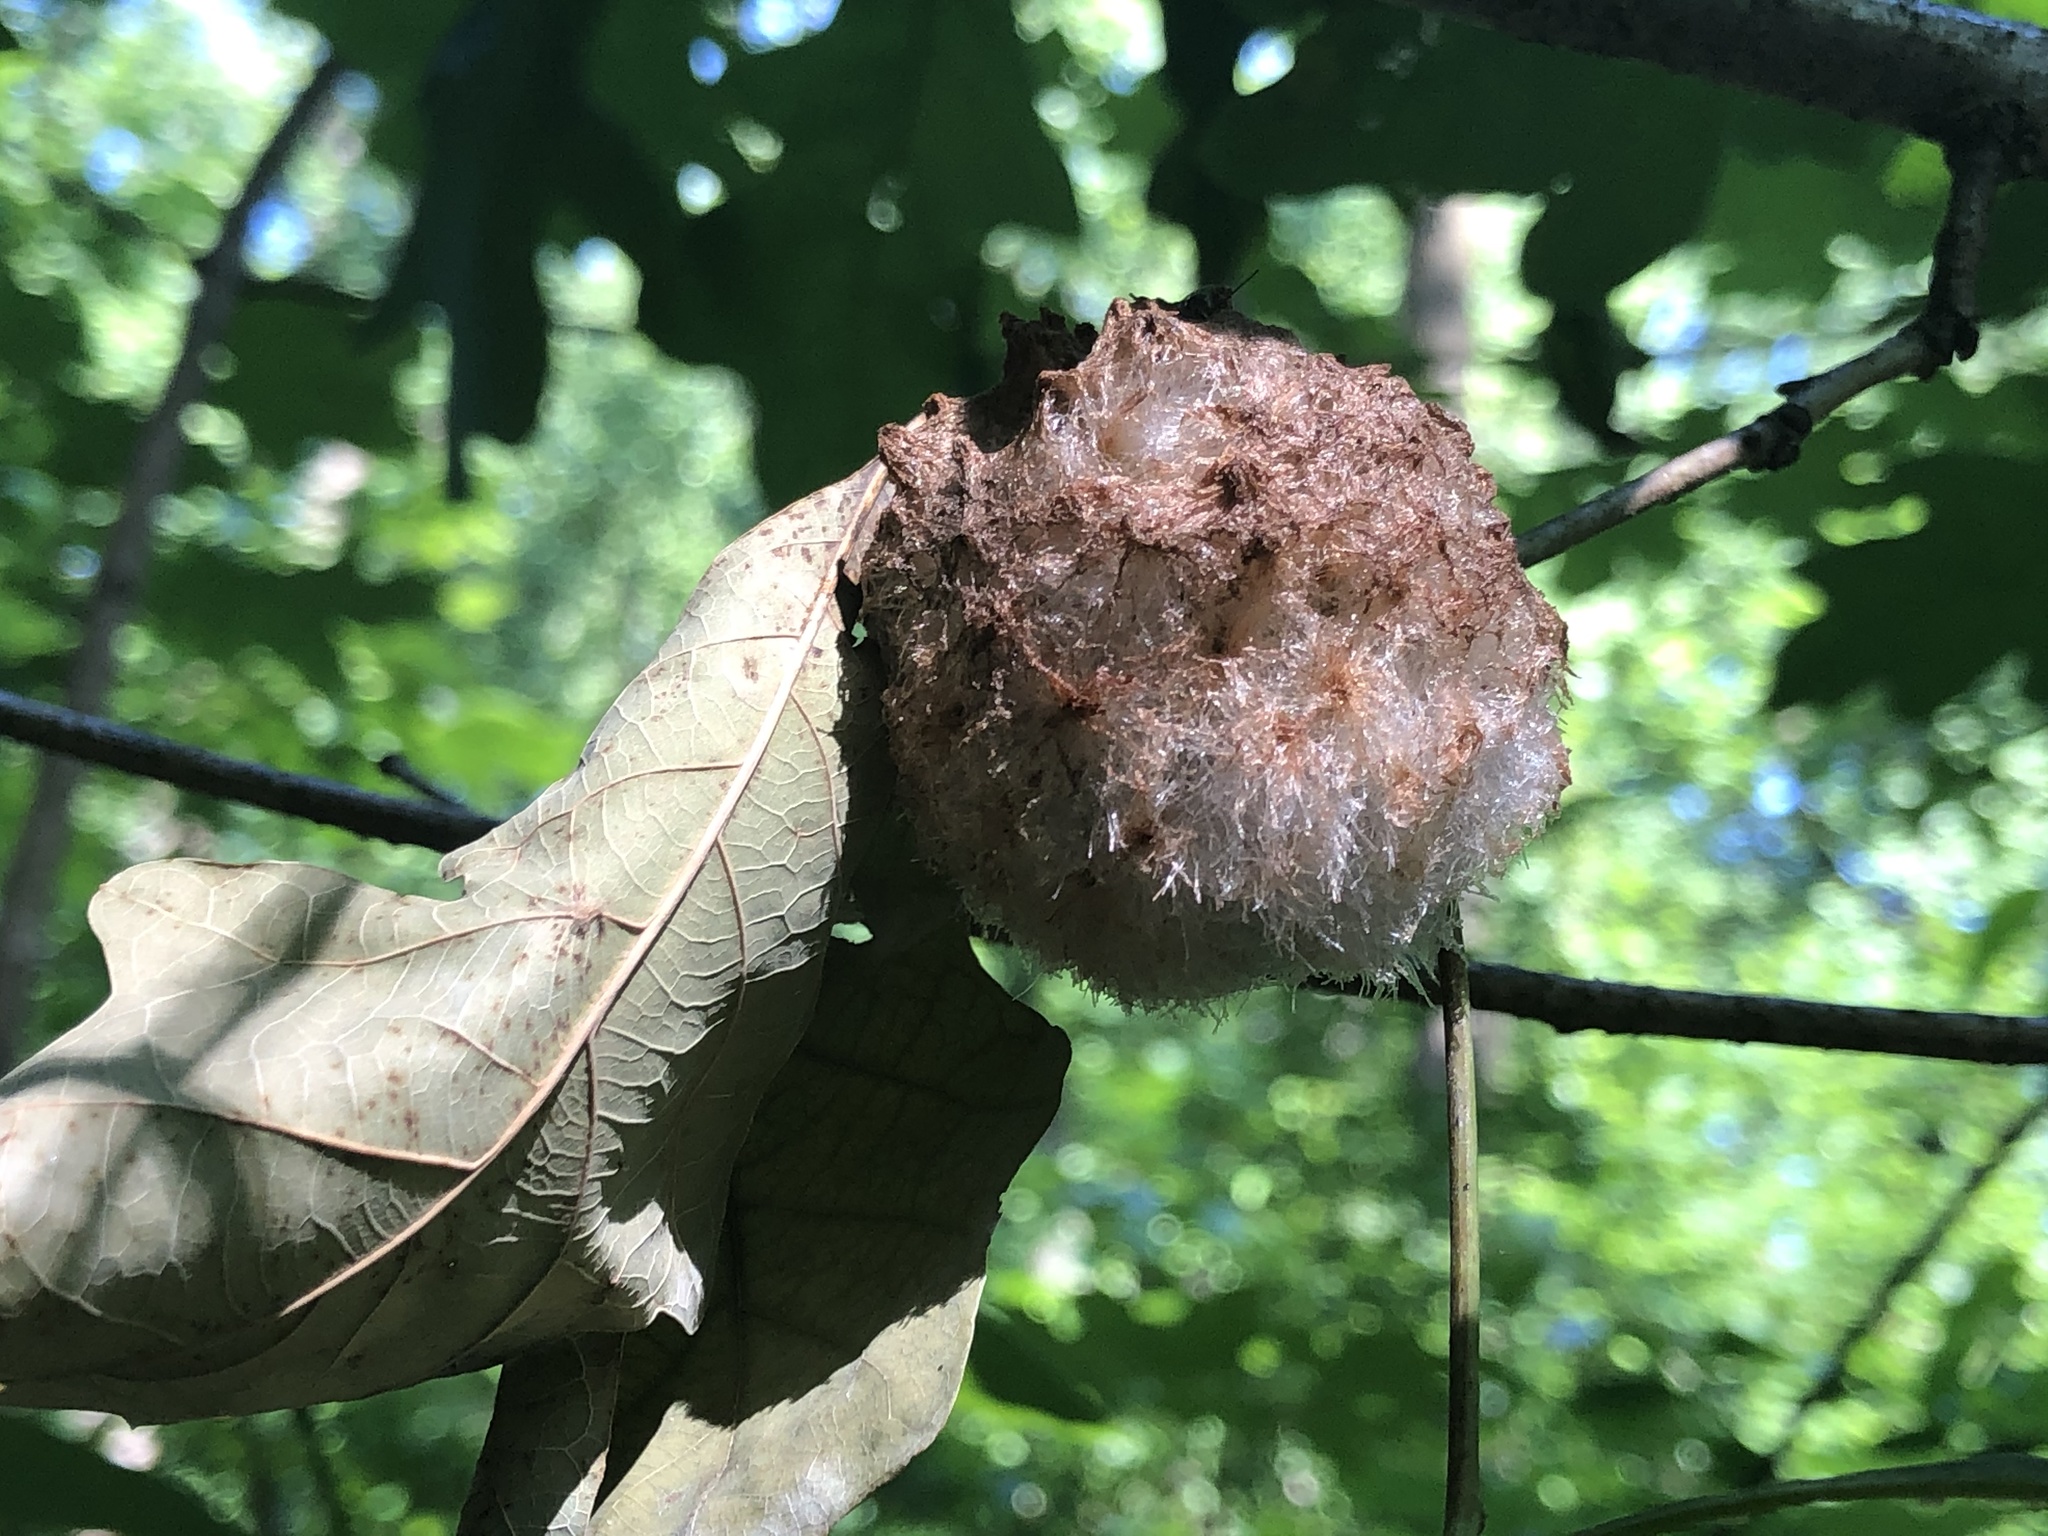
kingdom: Animalia
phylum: Arthropoda
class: Insecta
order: Hymenoptera
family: Cynipidae
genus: Callirhytis
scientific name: Callirhytis
